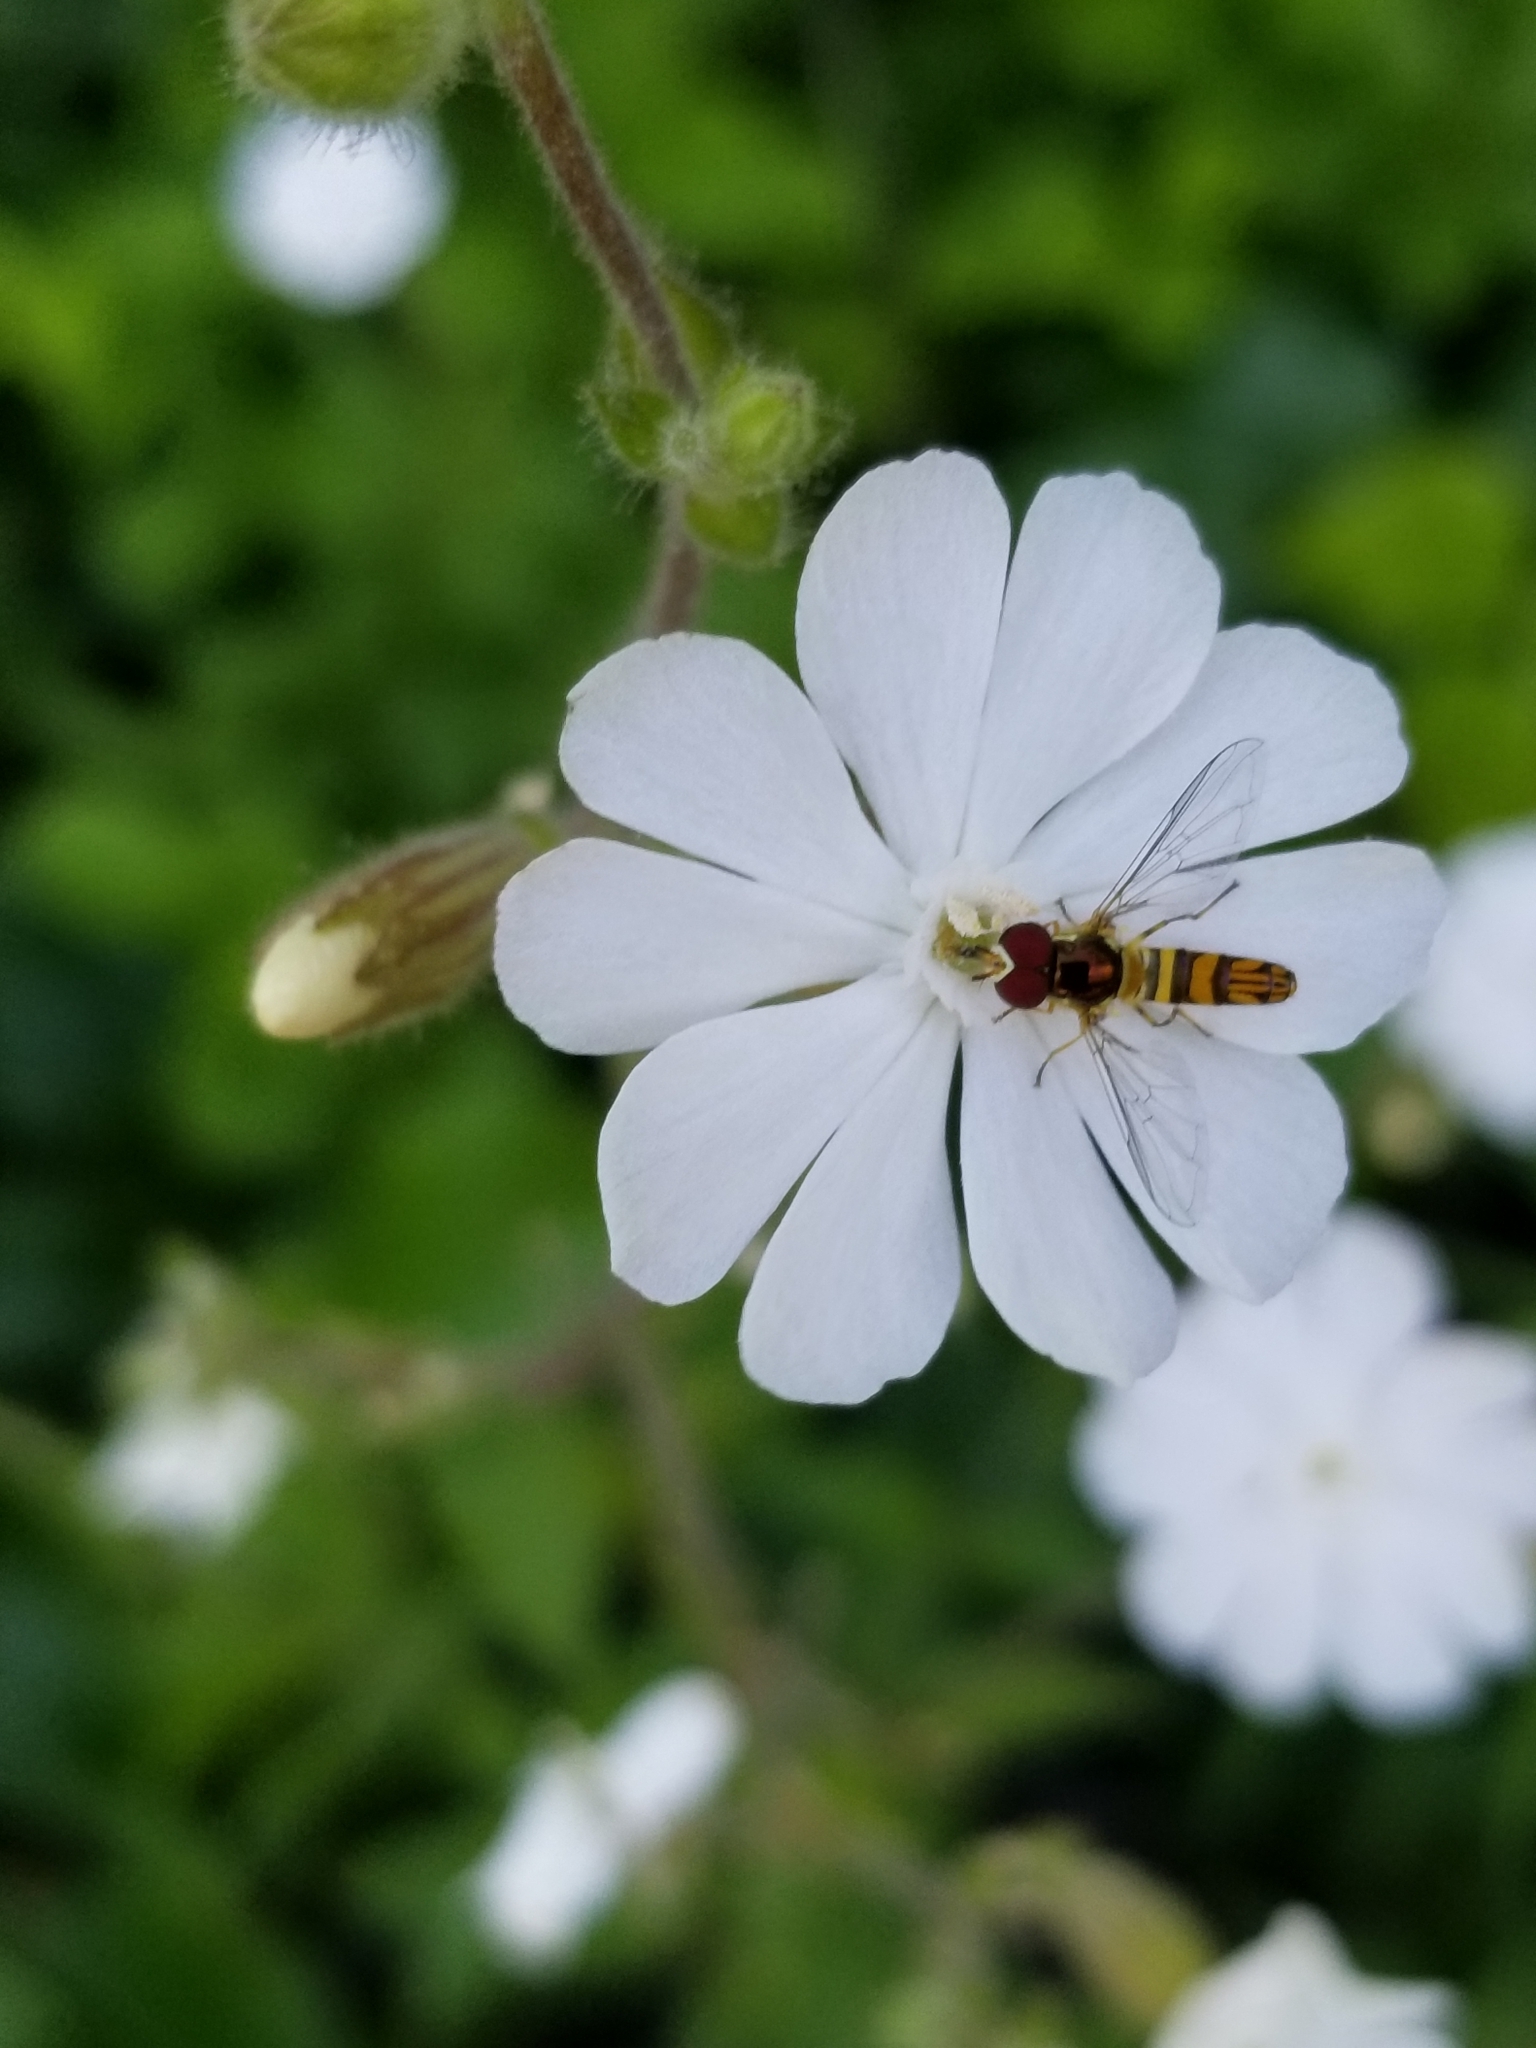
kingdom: Animalia
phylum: Arthropoda
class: Insecta
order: Diptera
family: Syrphidae
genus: Allograpta
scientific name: Allograpta obliqua
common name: Common oblique syrphid
